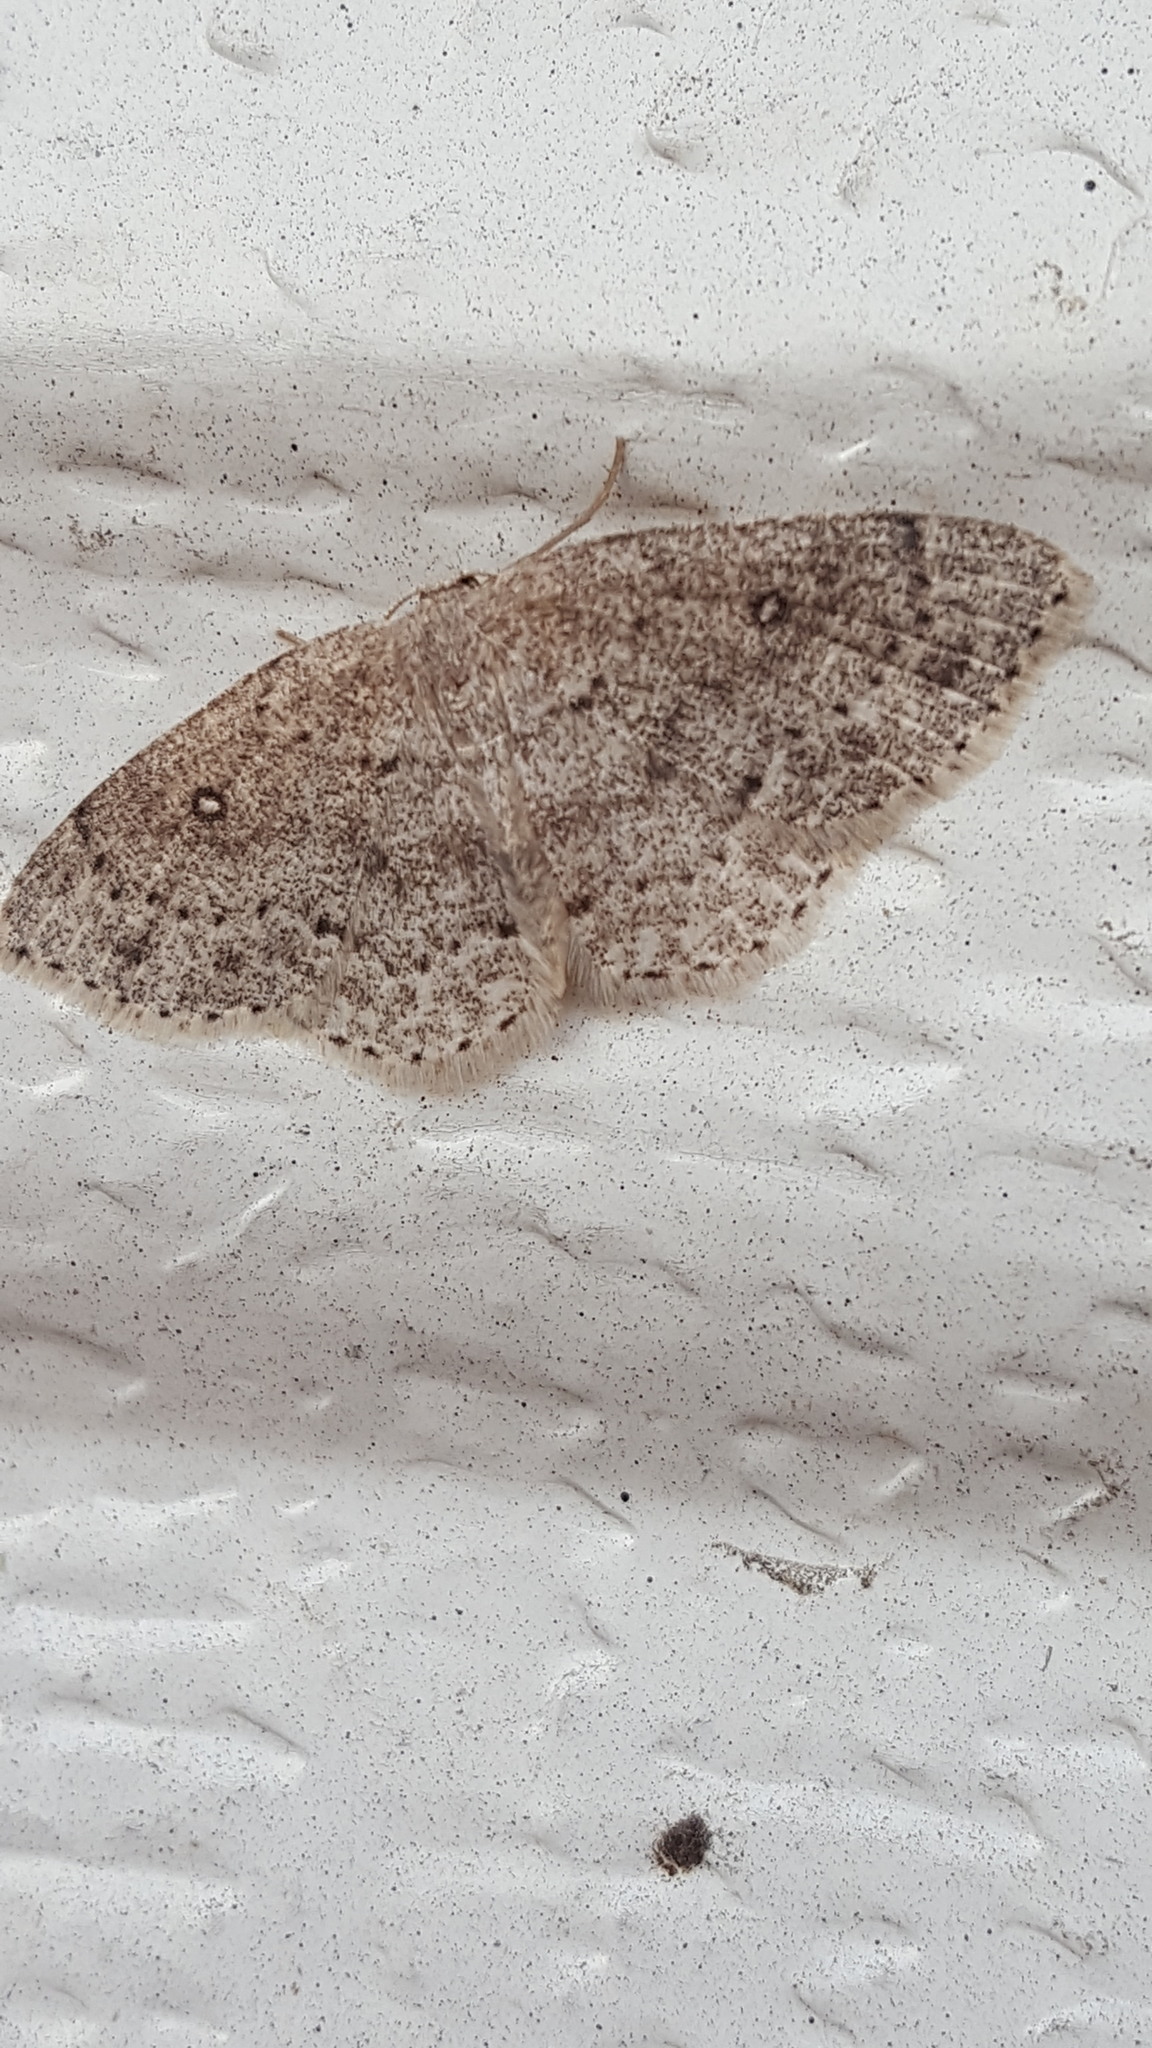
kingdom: Animalia
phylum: Arthropoda
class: Insecta
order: Lepidoptera
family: Geometridae
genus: Cyclophora
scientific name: Cyclophora pendulinaria
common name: Sweet fern geometer
